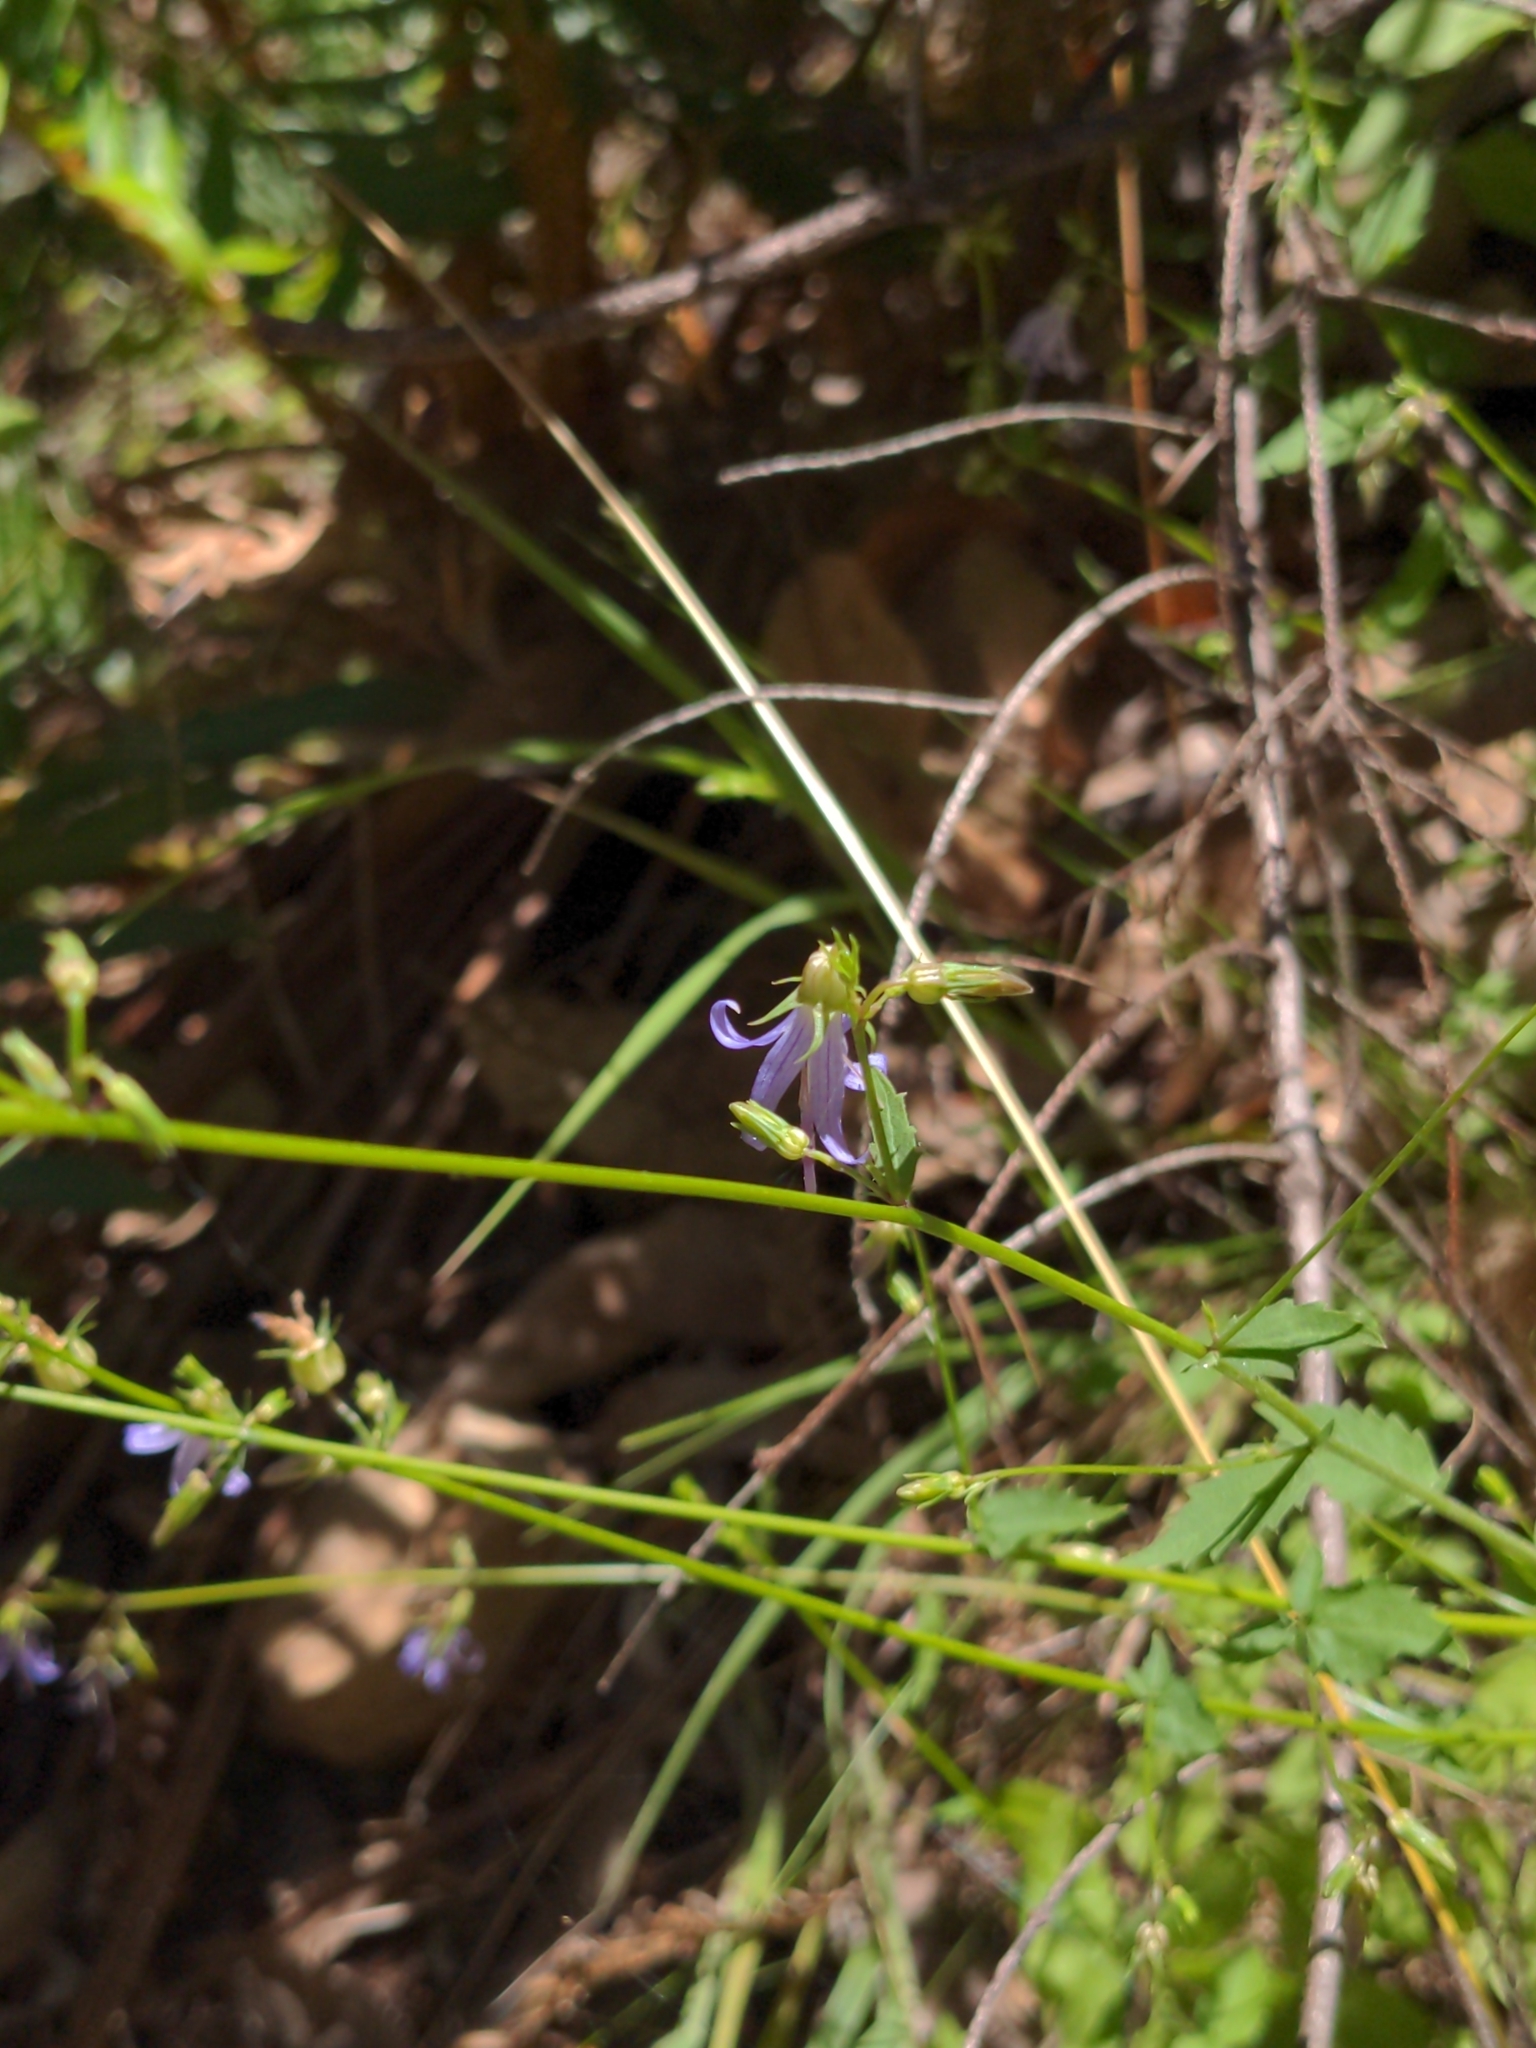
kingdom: Plantae
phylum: Tracheophyta
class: Magnoliopsida
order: Asterales
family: Campanulaceae
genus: Smithiastrum
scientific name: Smithiastrum prenanthoides
